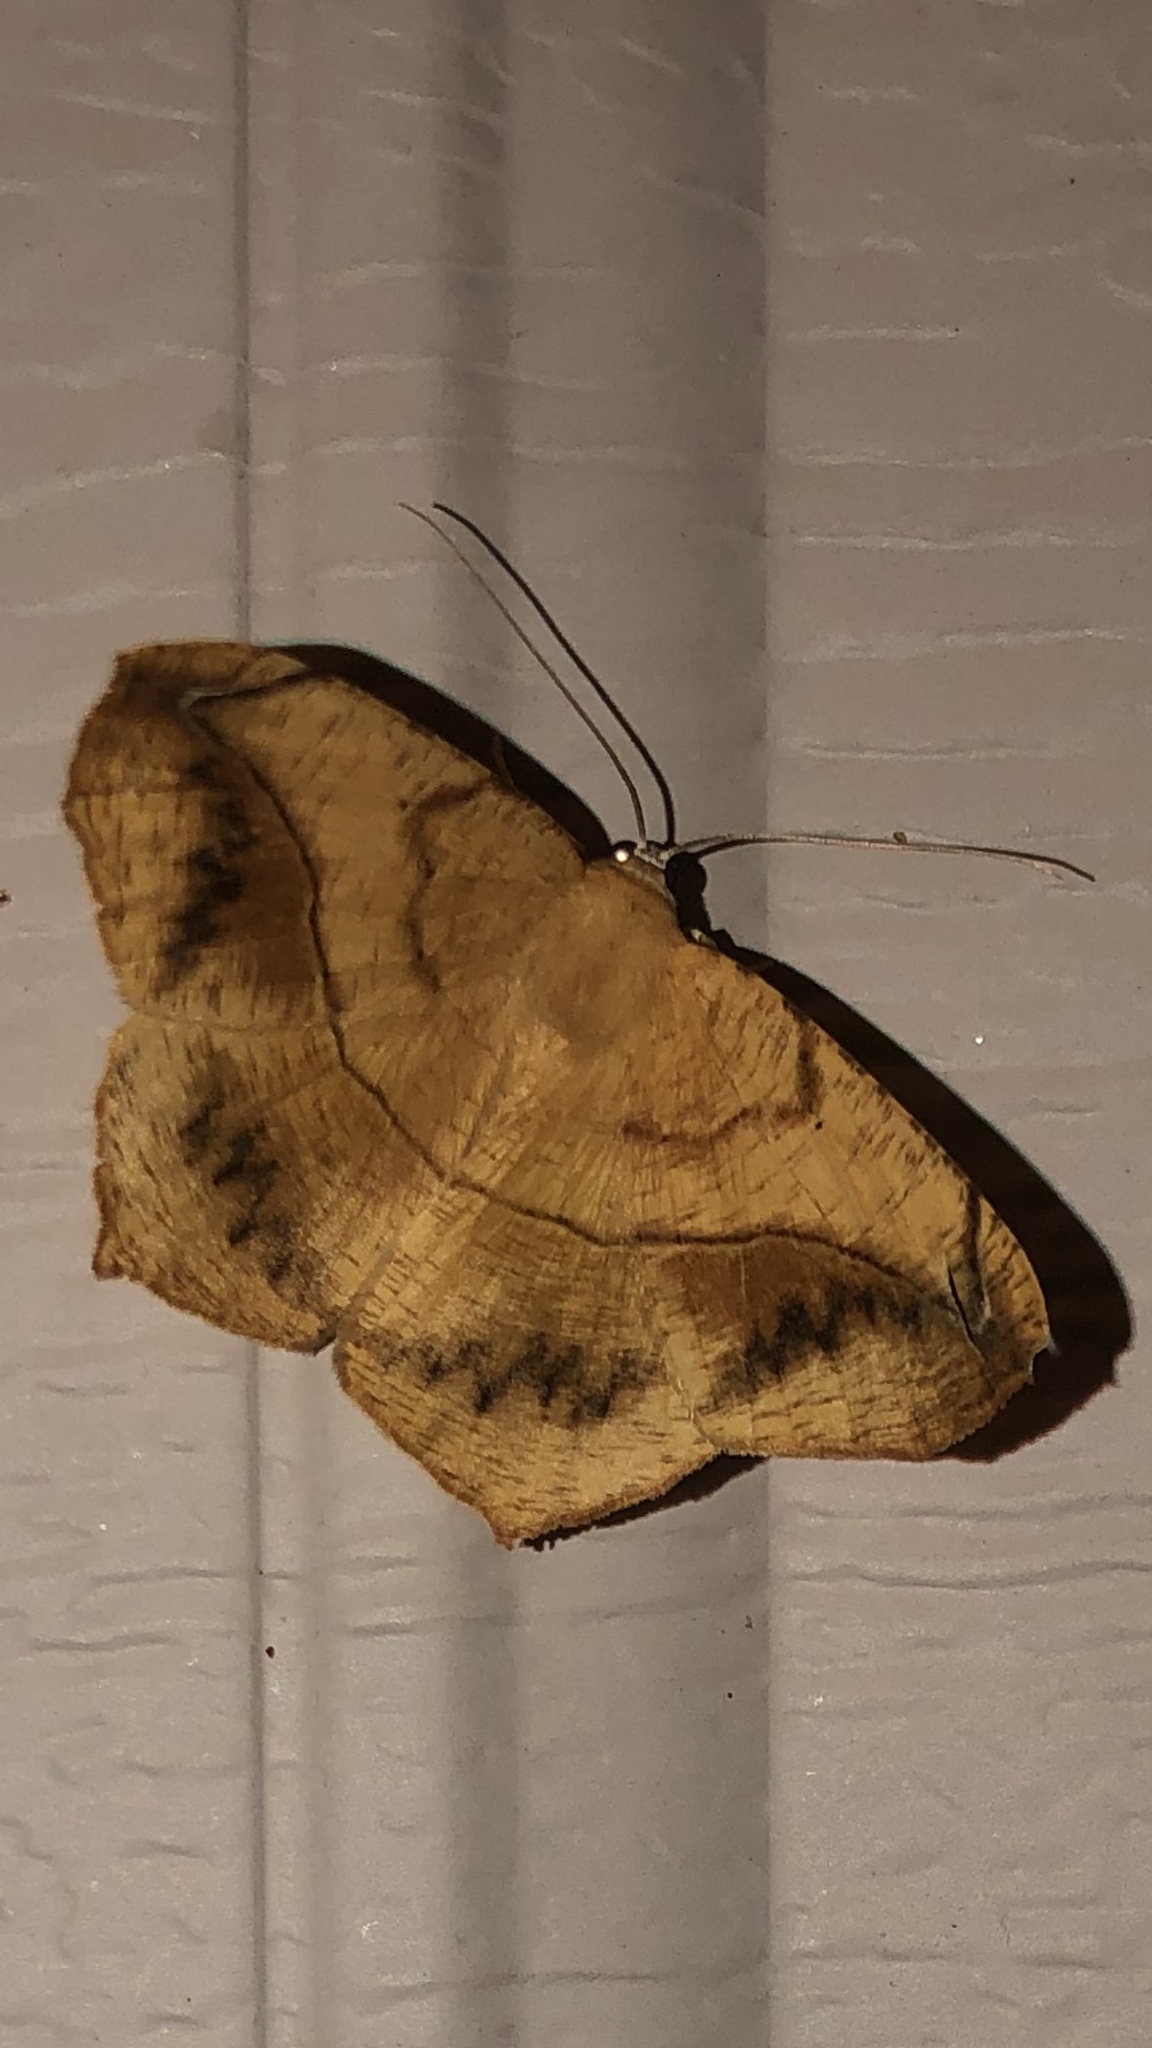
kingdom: Animalia
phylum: Arthropoda
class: Insecta
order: Lepidoptera
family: Geometridae
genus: Prochoerodes
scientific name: Prochoerodes lineola
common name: Large maple spanworm
